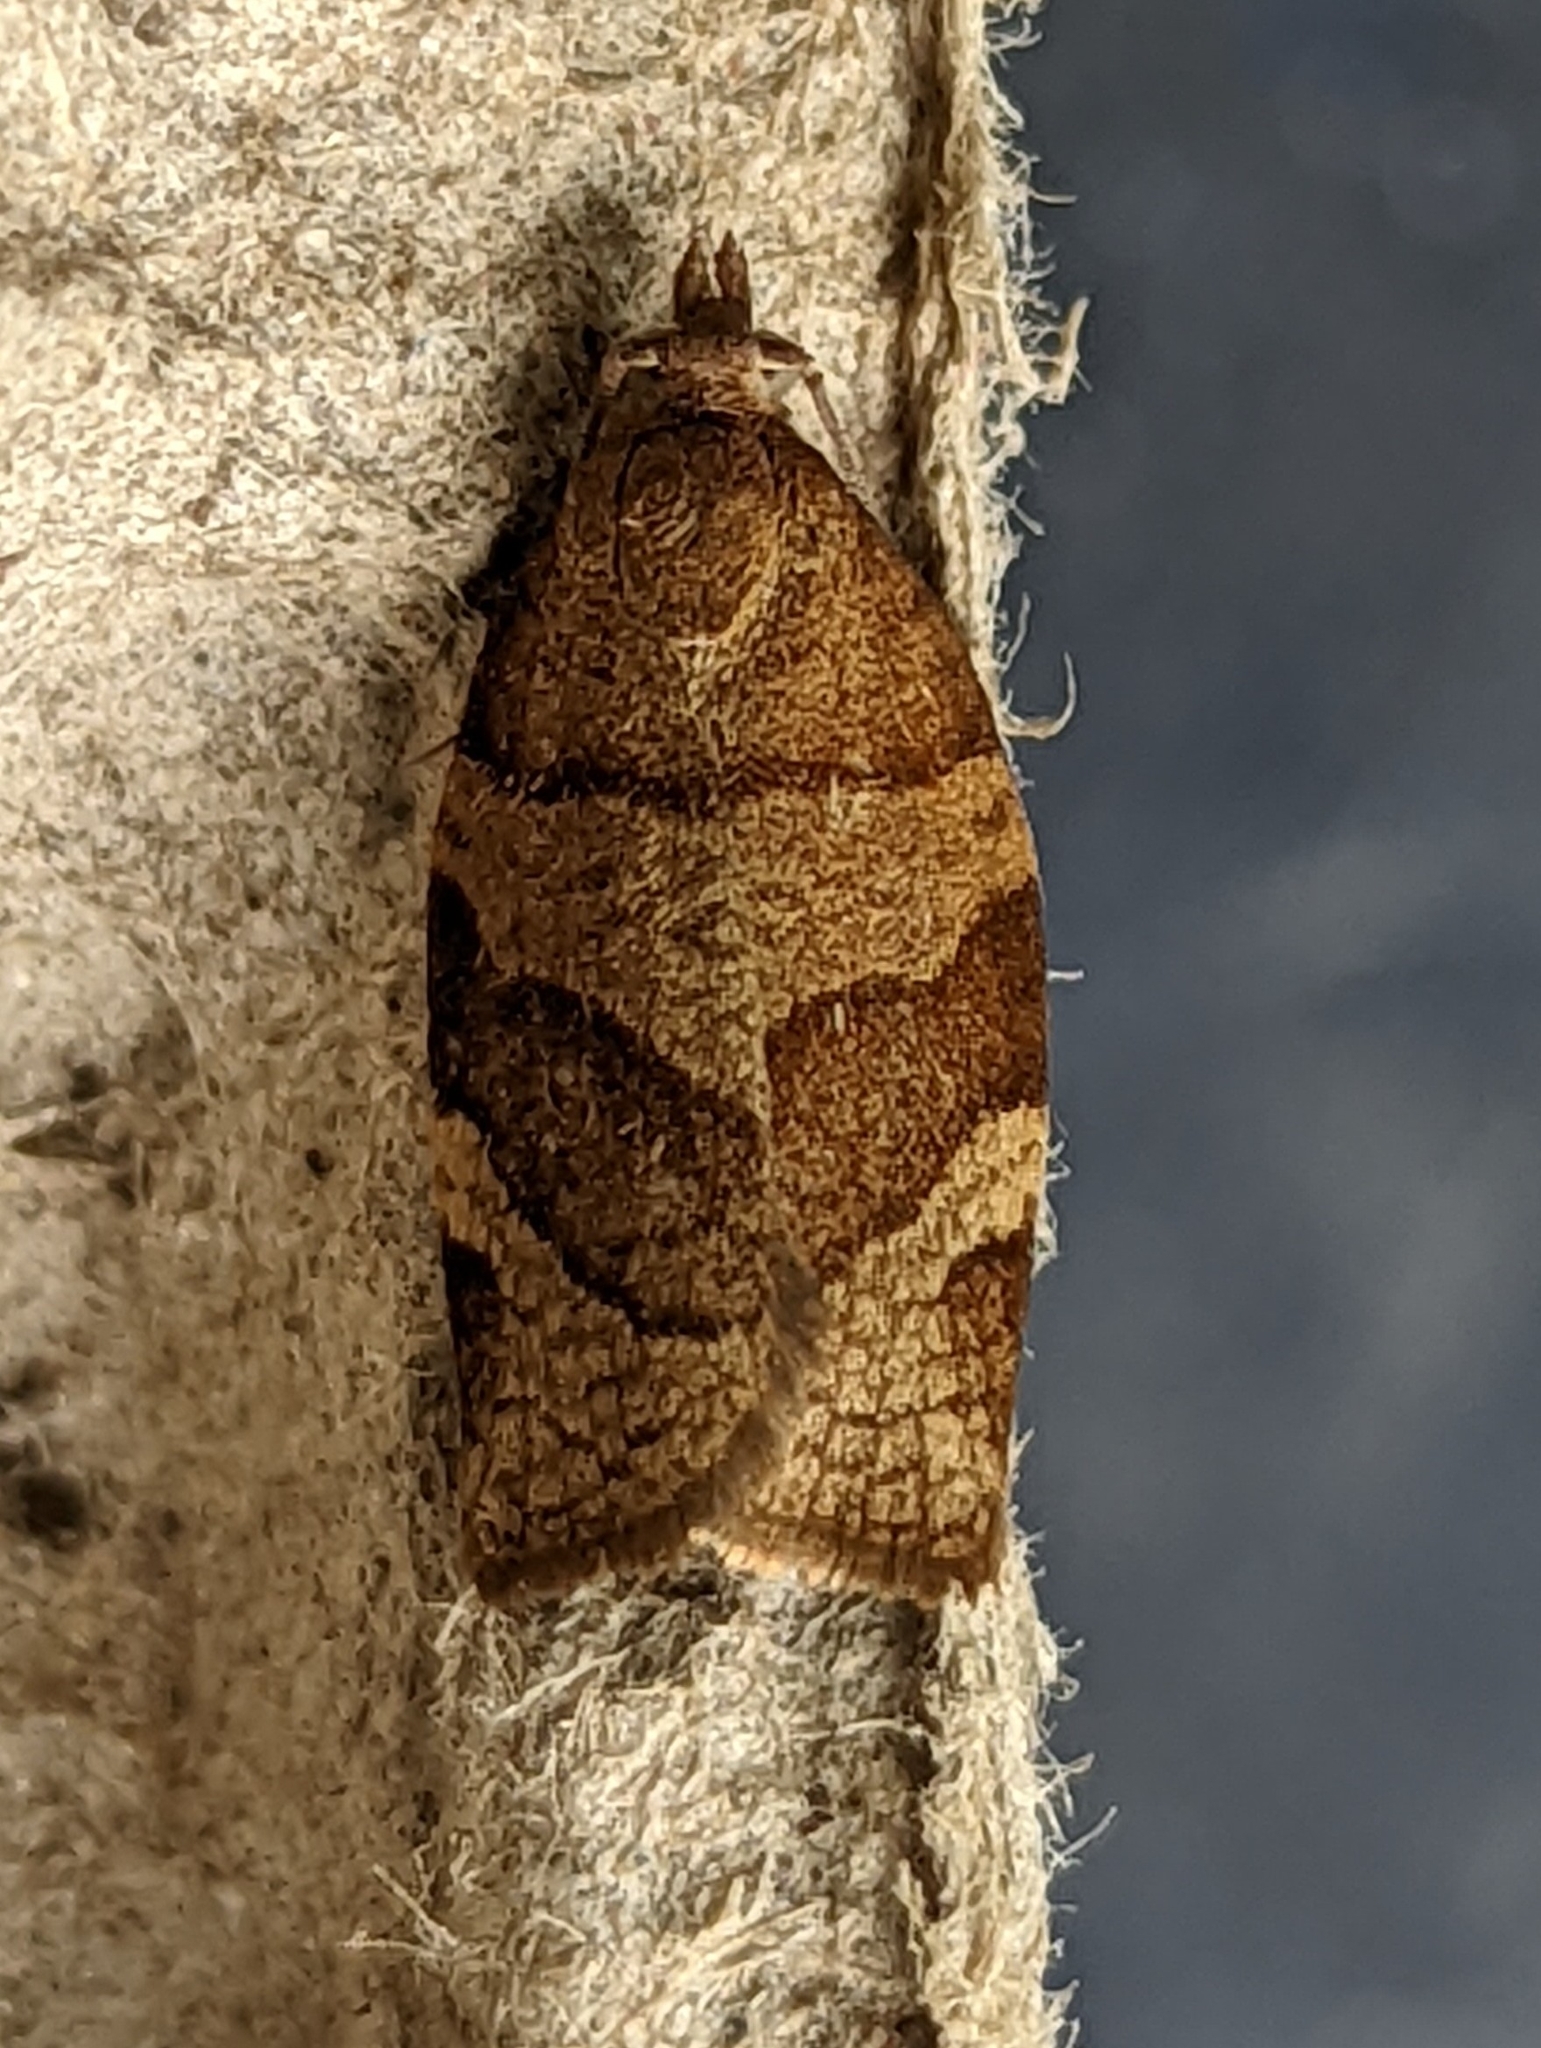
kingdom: Animalia
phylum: Arthropoda
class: Insecta
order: Lepidoptera
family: Tortricidae
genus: Pandemis
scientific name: Pandemis cerasana
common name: Barred fruit-tree tortrix
